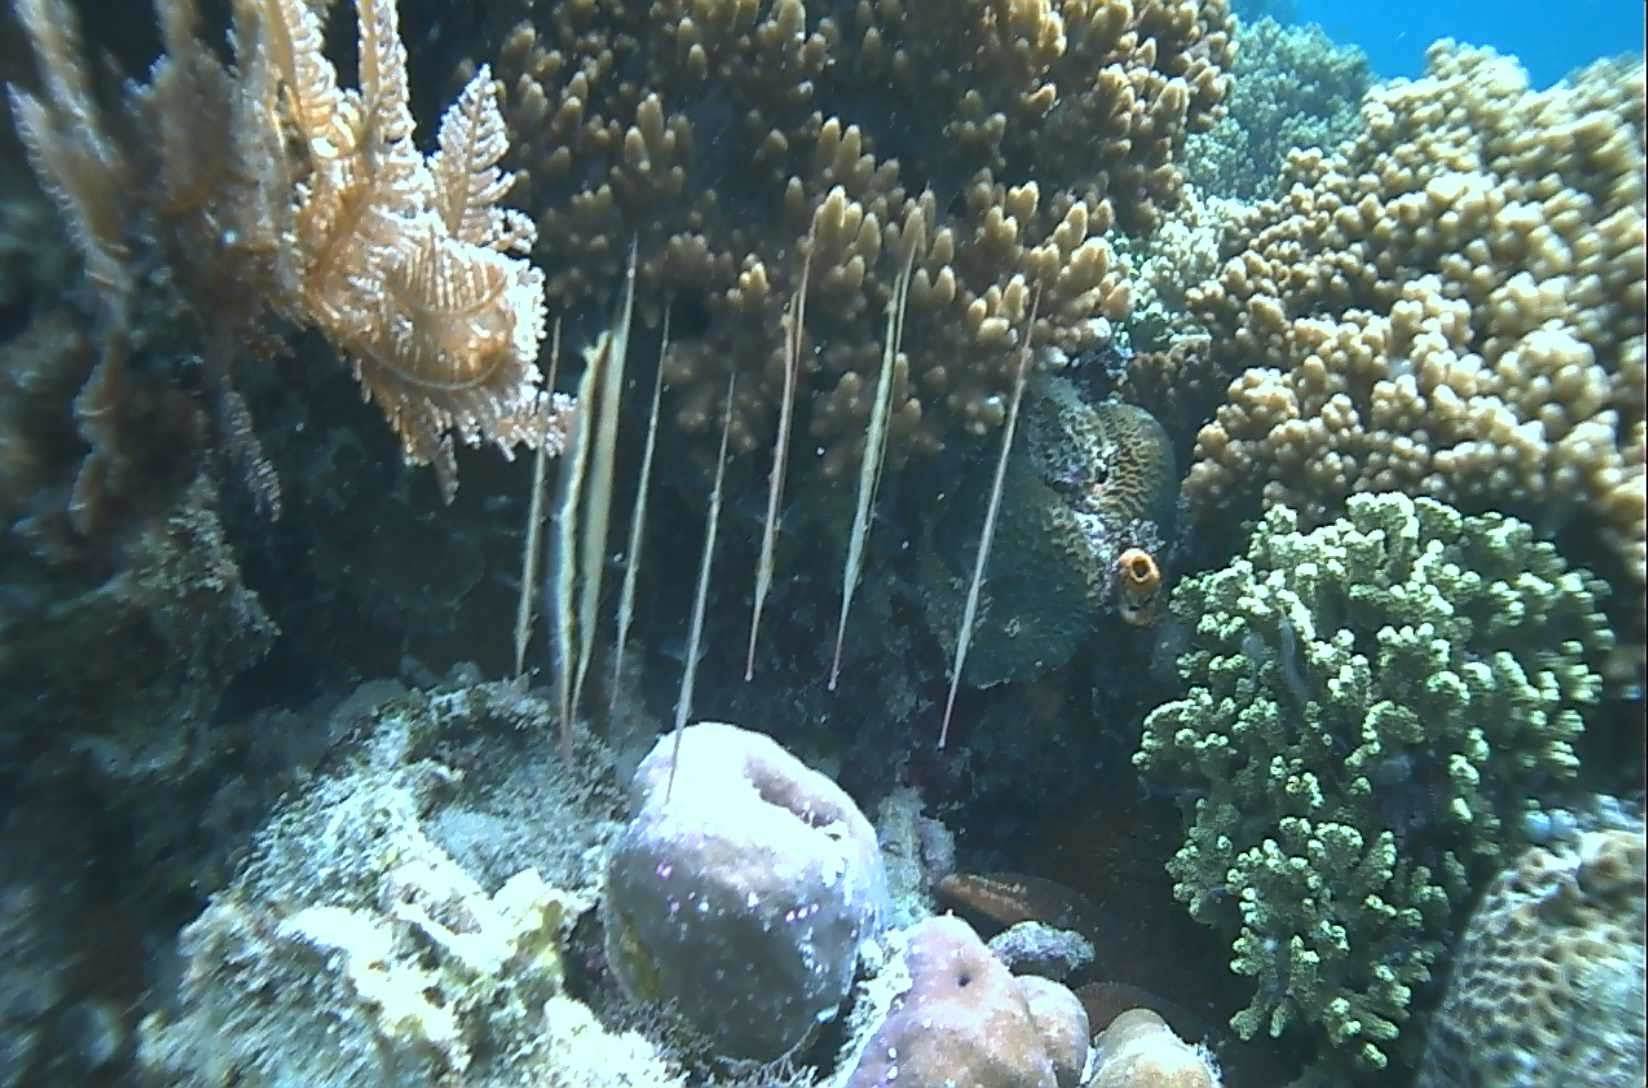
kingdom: Animalia
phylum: Chordata
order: Syngnathiformes
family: Centriscidae
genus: Aeoliscus
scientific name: Aeoliscus strigatus
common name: Canif
